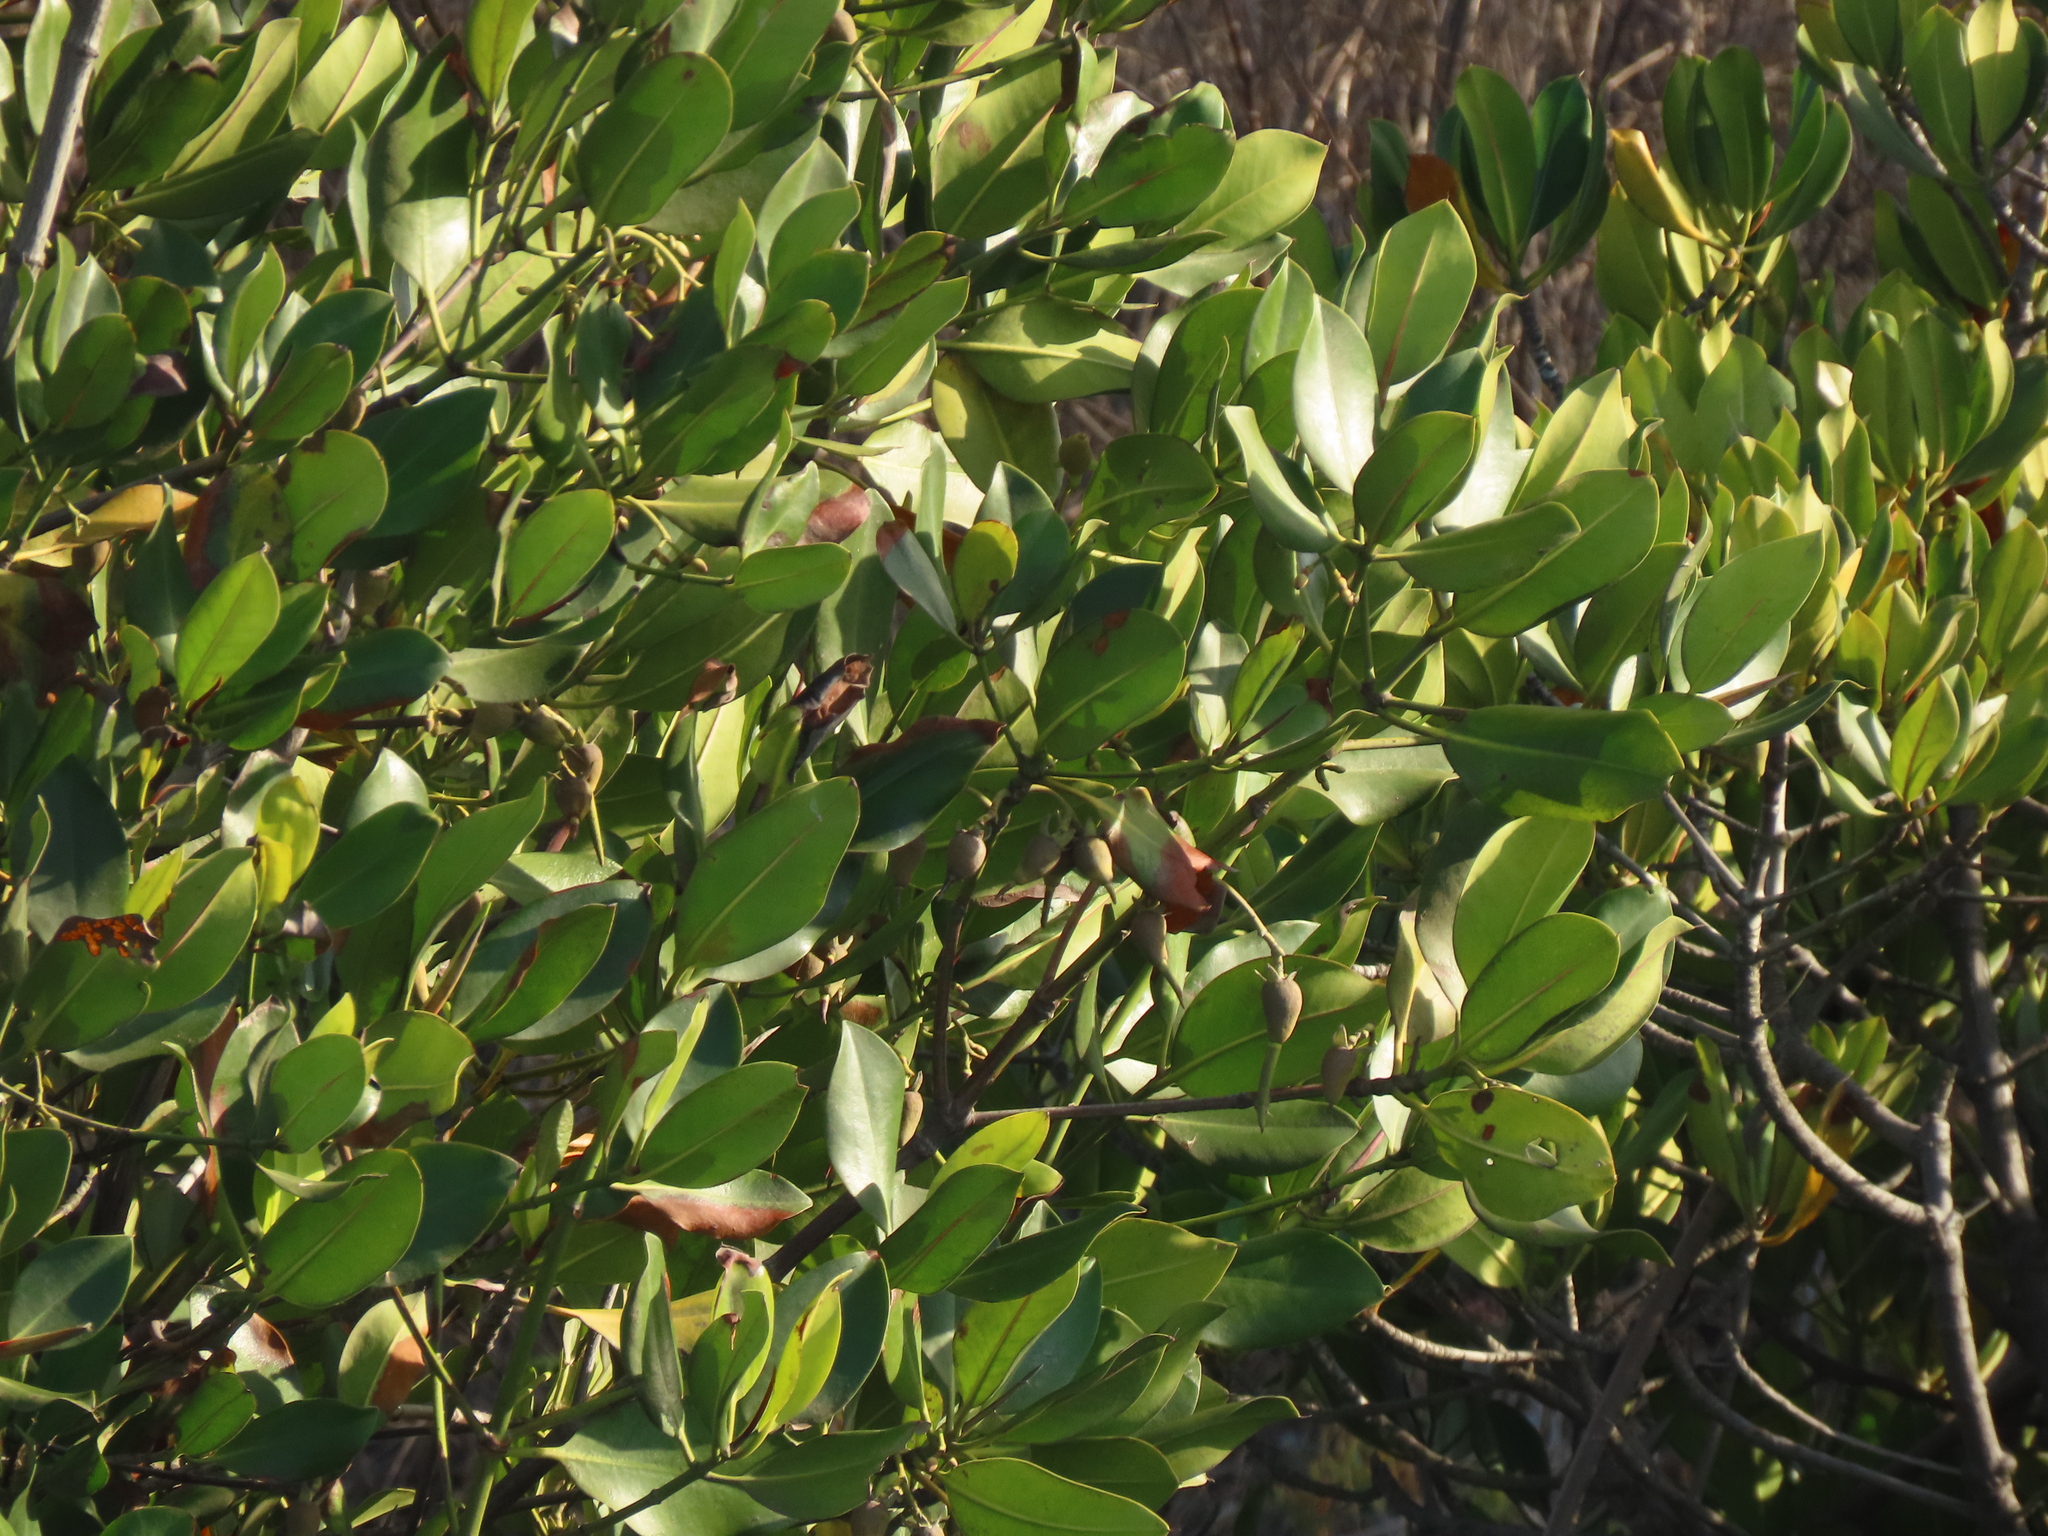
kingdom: Plantae
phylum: Tracheophyta
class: Magnoliopsida
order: Malpighiales
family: Rhizophoraceae
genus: Rhizophora
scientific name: Rhizophora stylosa
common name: Red mangrove
